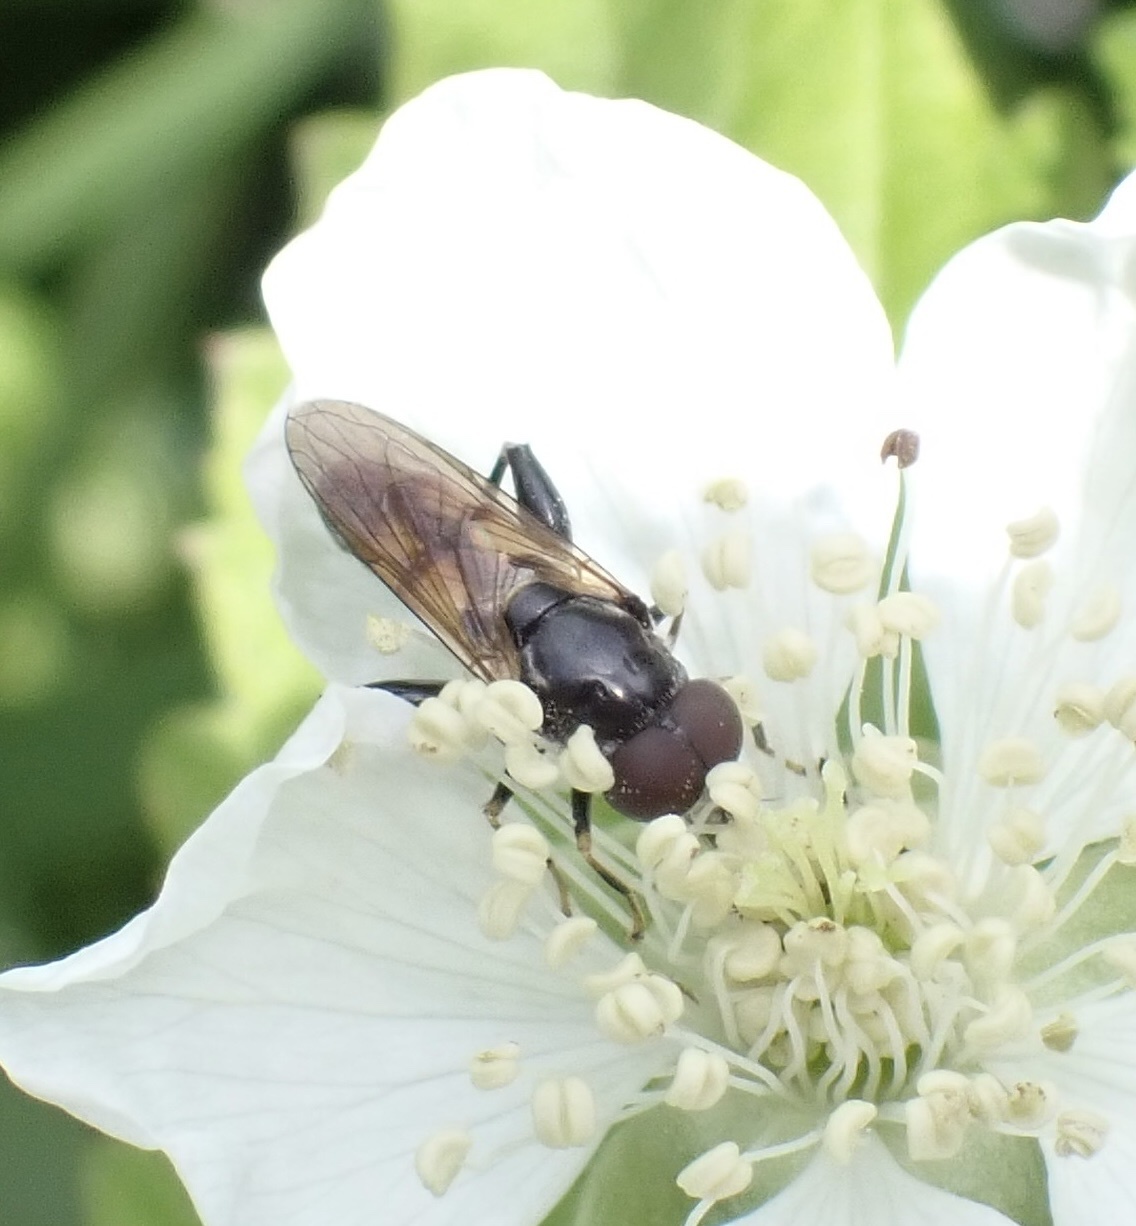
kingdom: Animalia
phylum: Arthropoda
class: Insecta
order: Diptera
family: Syrphidae
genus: Tropidia
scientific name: Tropidia scita
